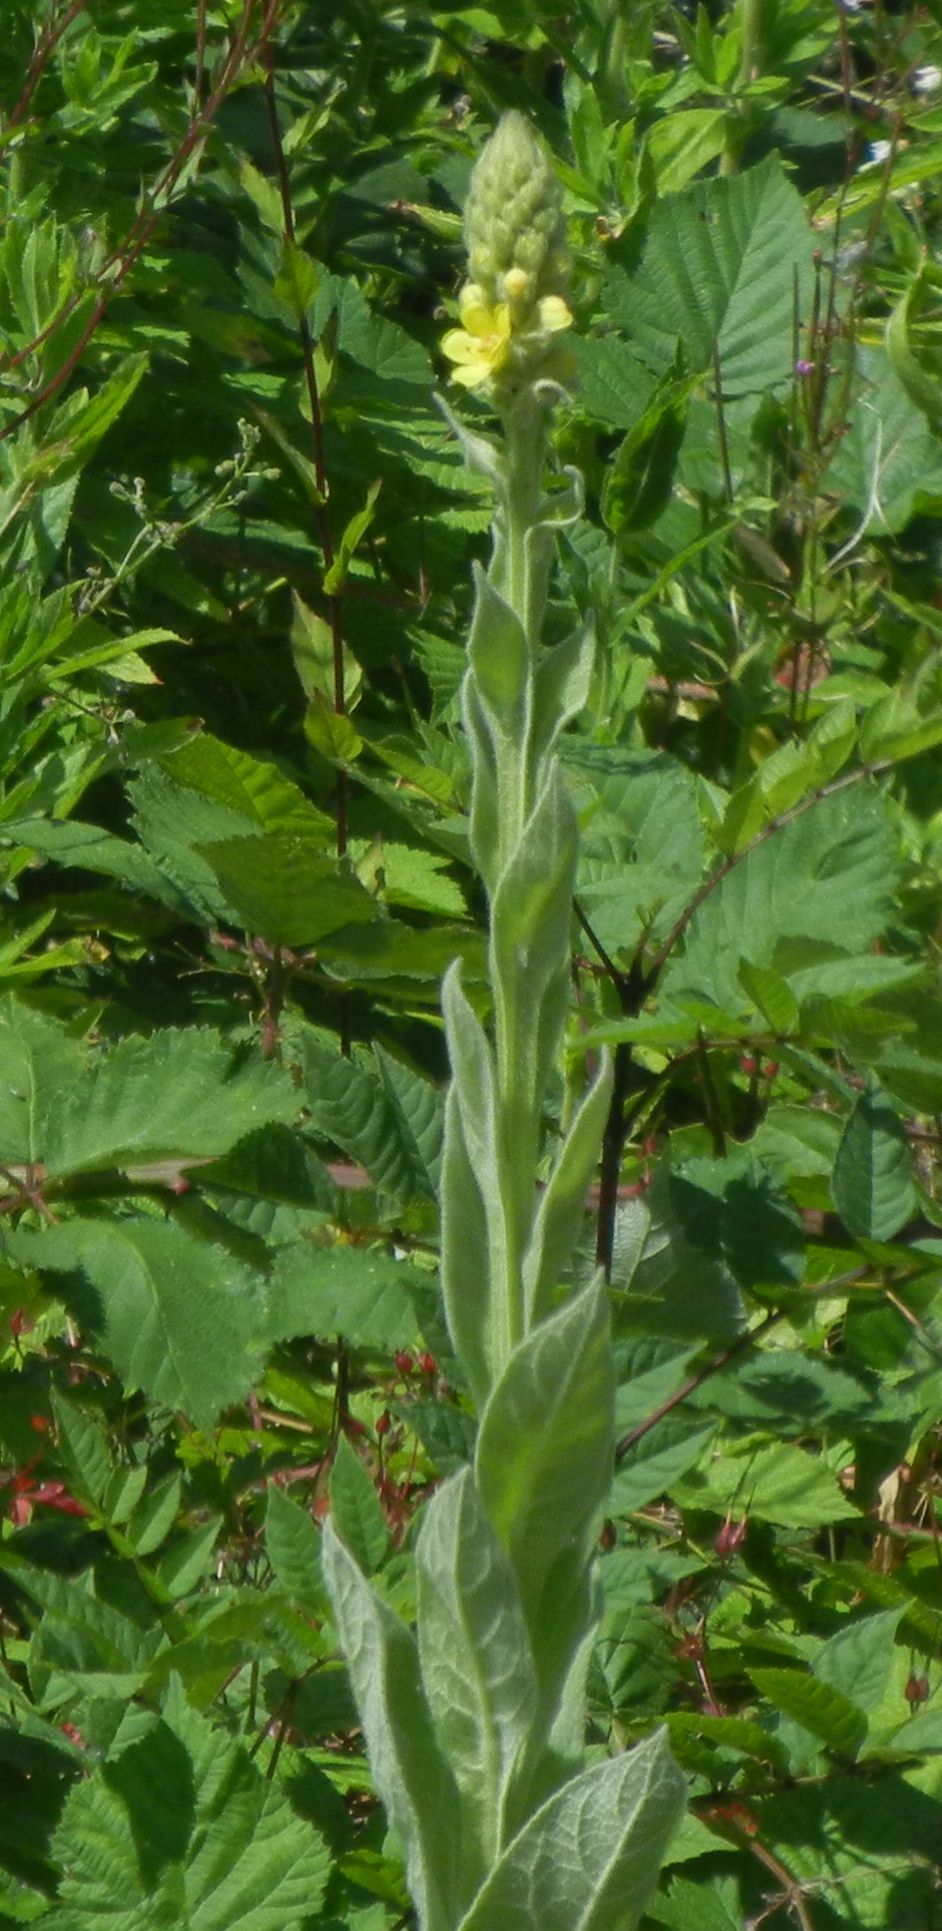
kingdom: Plantae
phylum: Tracheophyta
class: Magnoliopsida
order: Lamiales
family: Scrophulariaceae
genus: Verbascum
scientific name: Verbascum thapsus
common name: Common mullein
